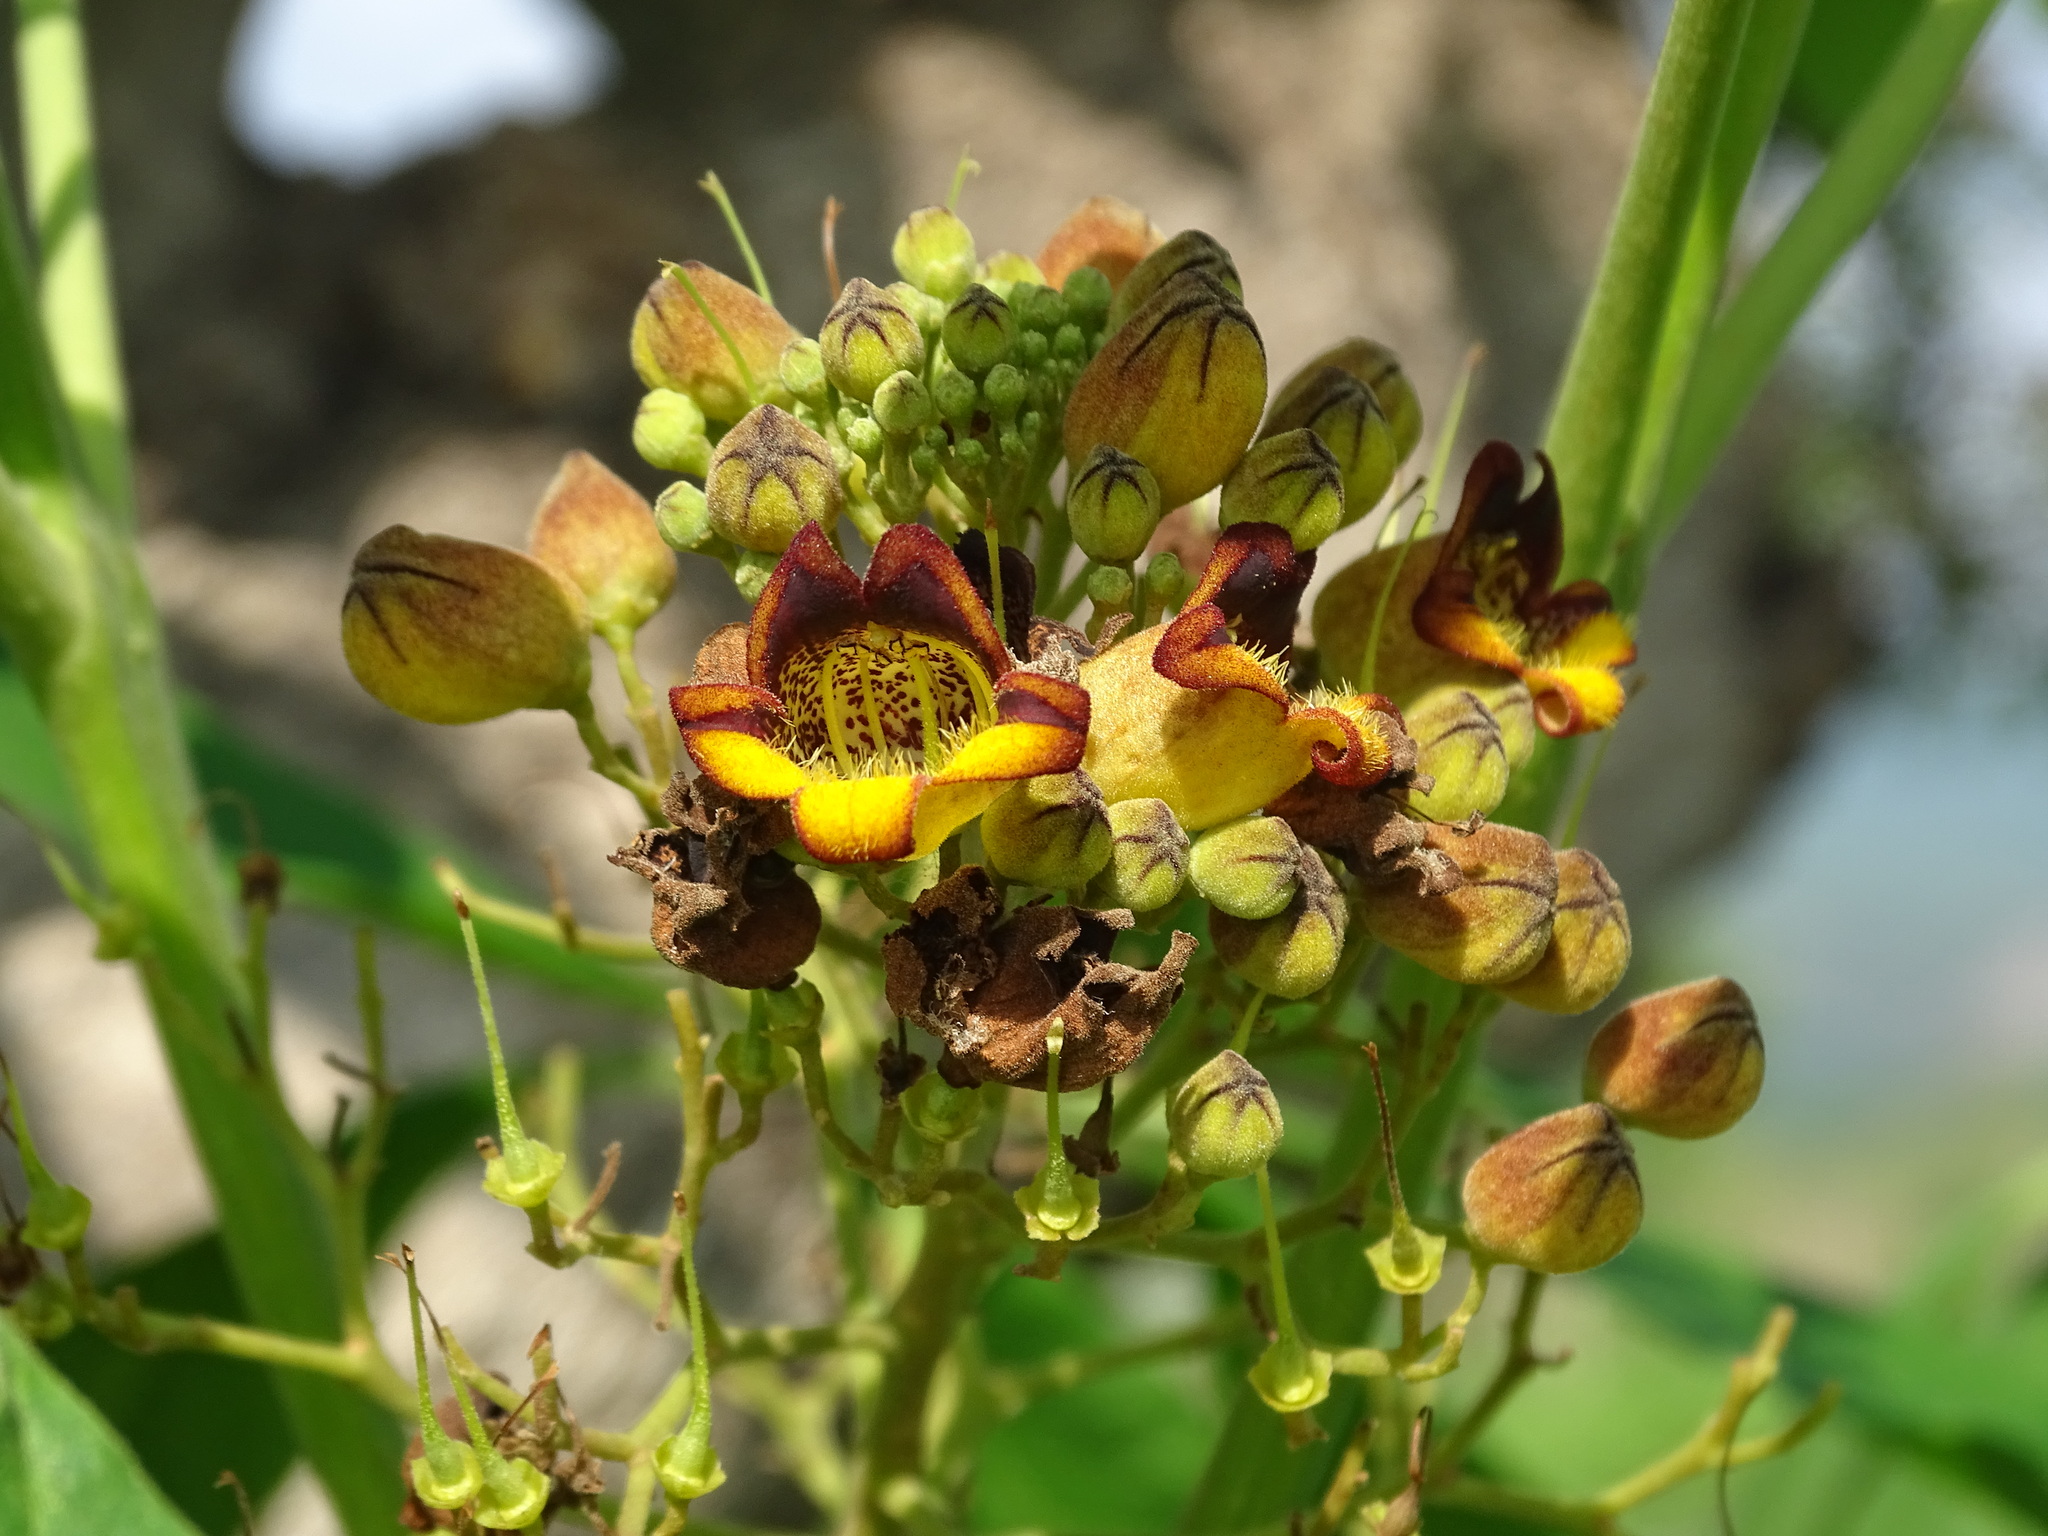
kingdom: Plantae
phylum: Tracheophyta
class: Magnoliopsida
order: Lamiales
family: Bignoniaceae
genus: Godmania
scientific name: Godmania aesculifolia
